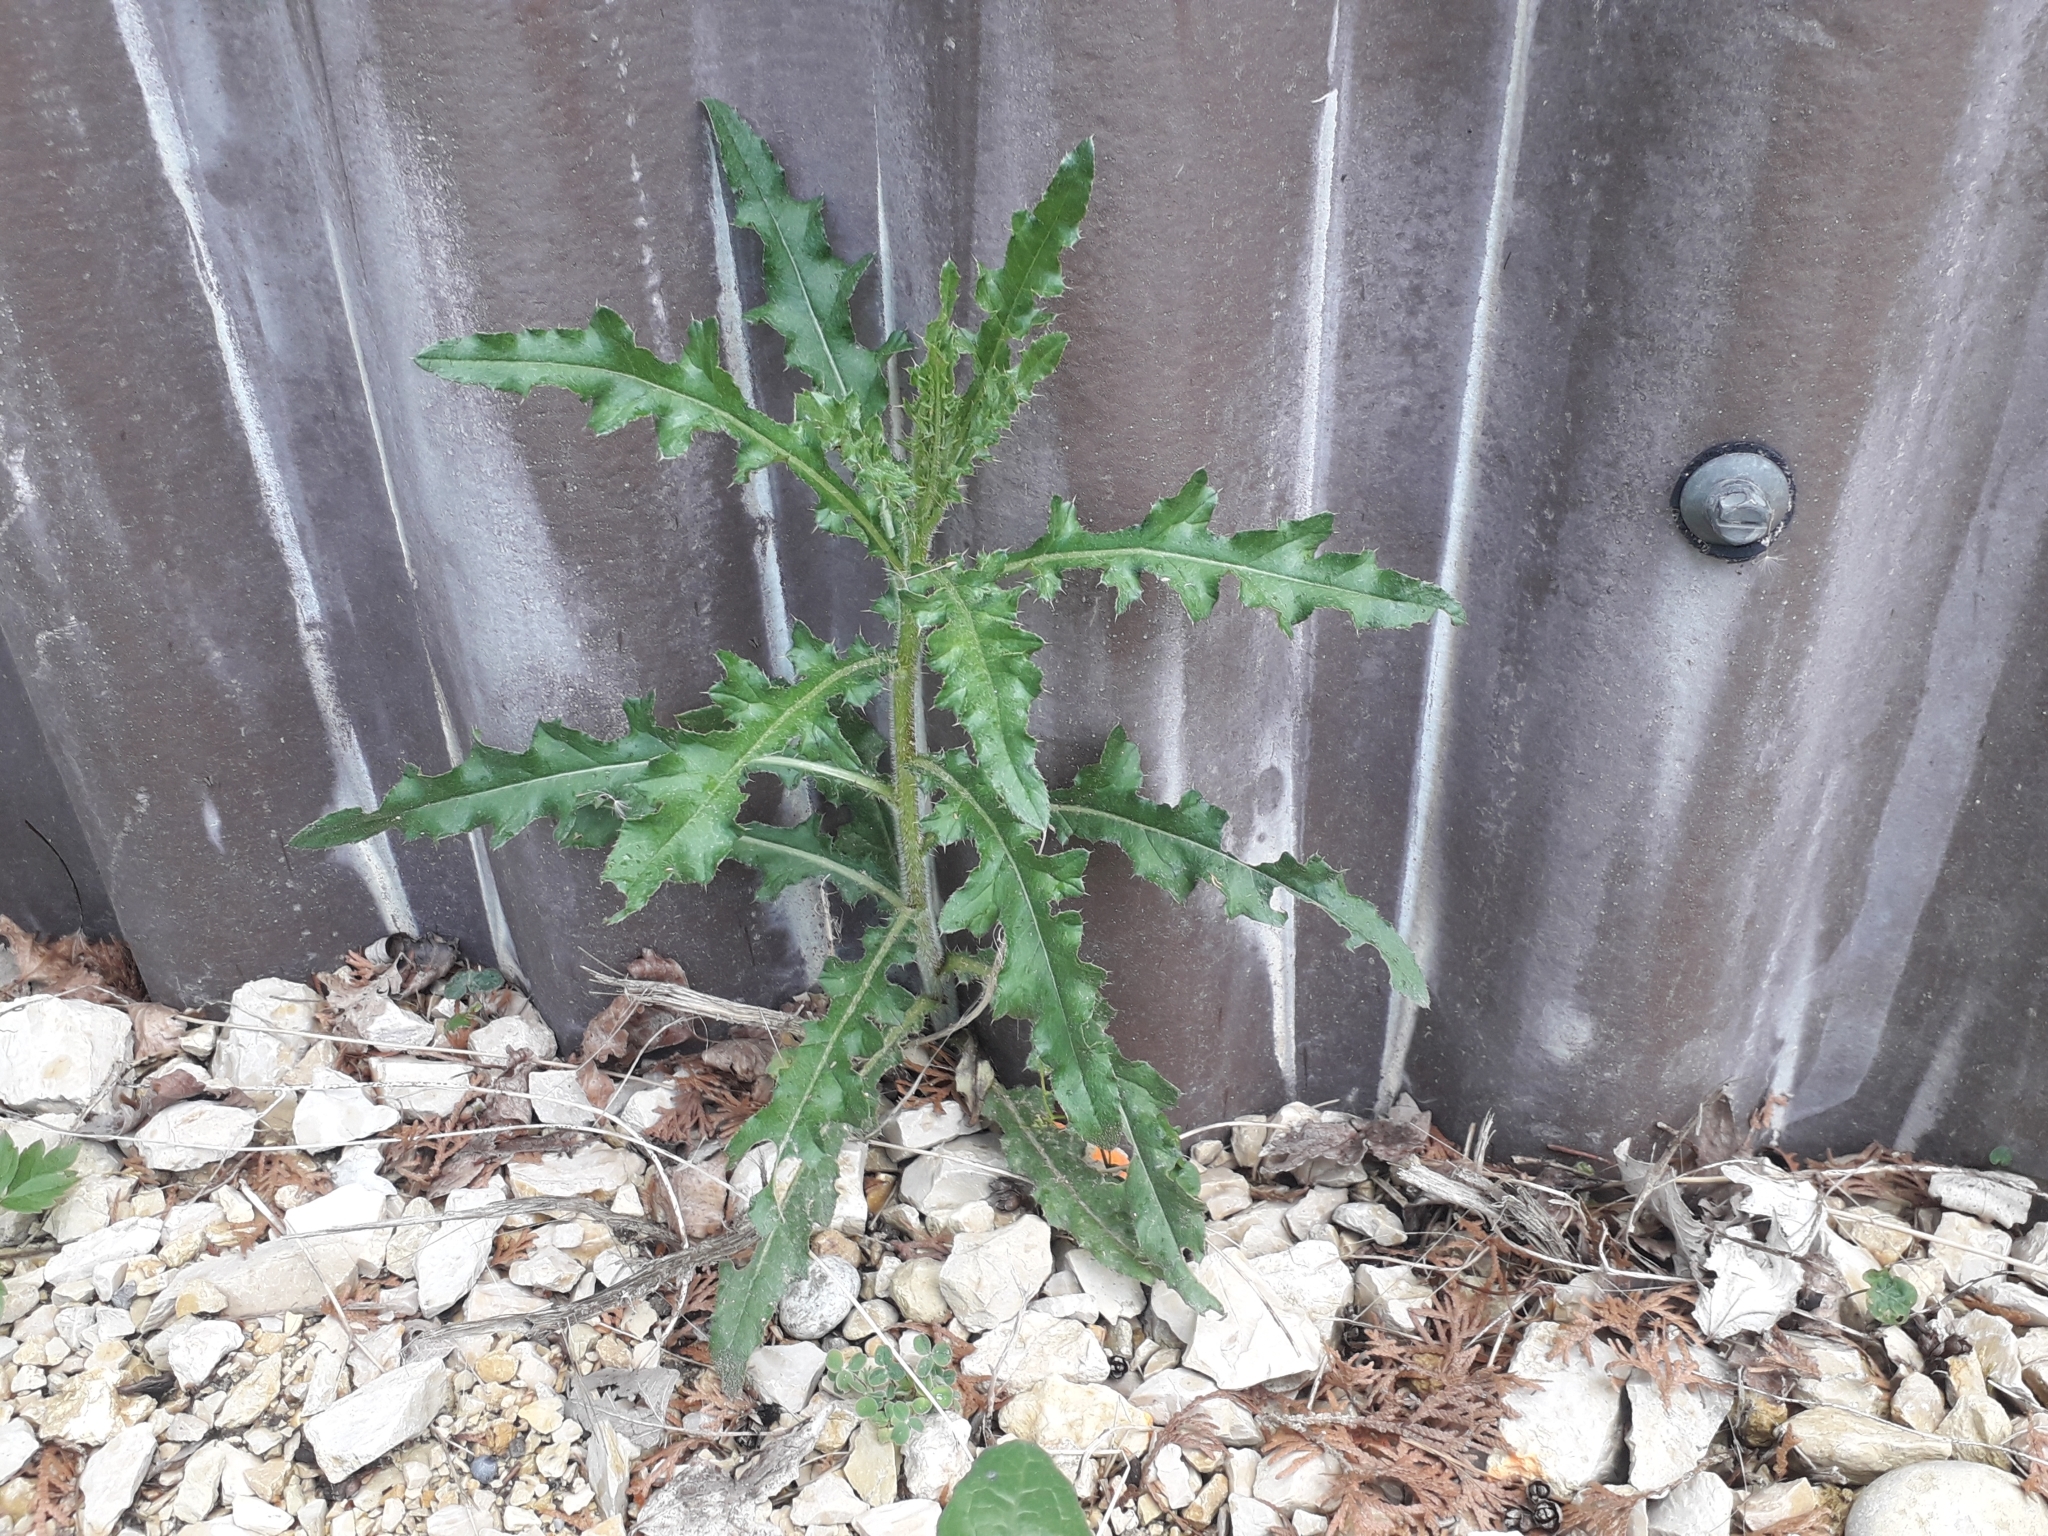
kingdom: Plantae
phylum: Tracheophyta
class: Magnoliopsida
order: Asterales
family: Asteraceae
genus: Cirsium
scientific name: Cirsium arvense
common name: Creeping thistle
